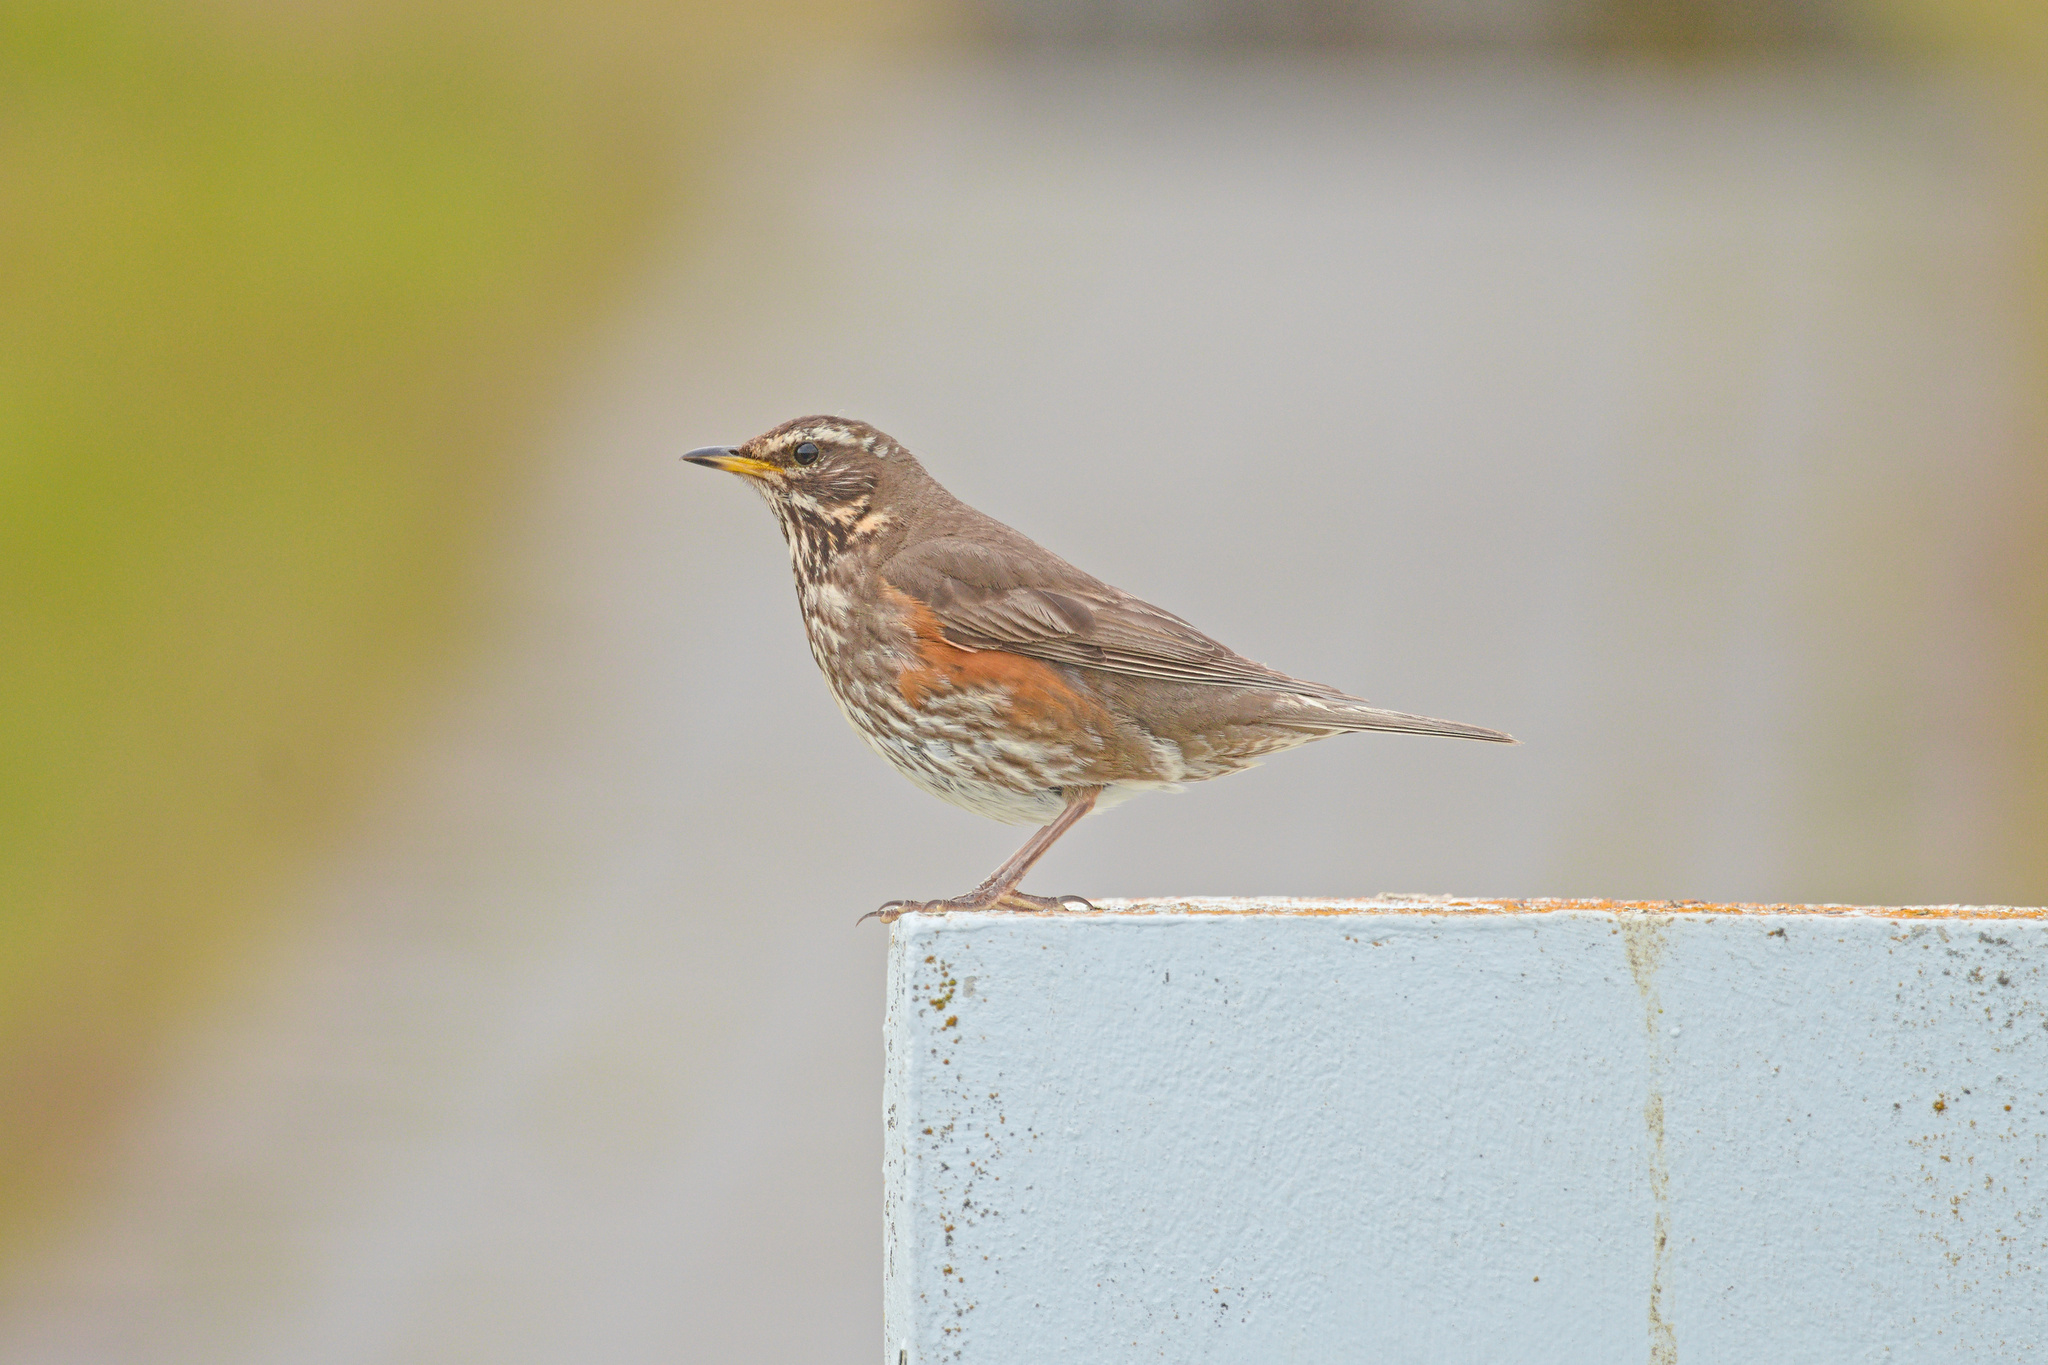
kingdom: Animalia
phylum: Chordata
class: Aves
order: Passeriformes
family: Turdidae
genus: Turdus
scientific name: Turdus iliacus
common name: Redwing
